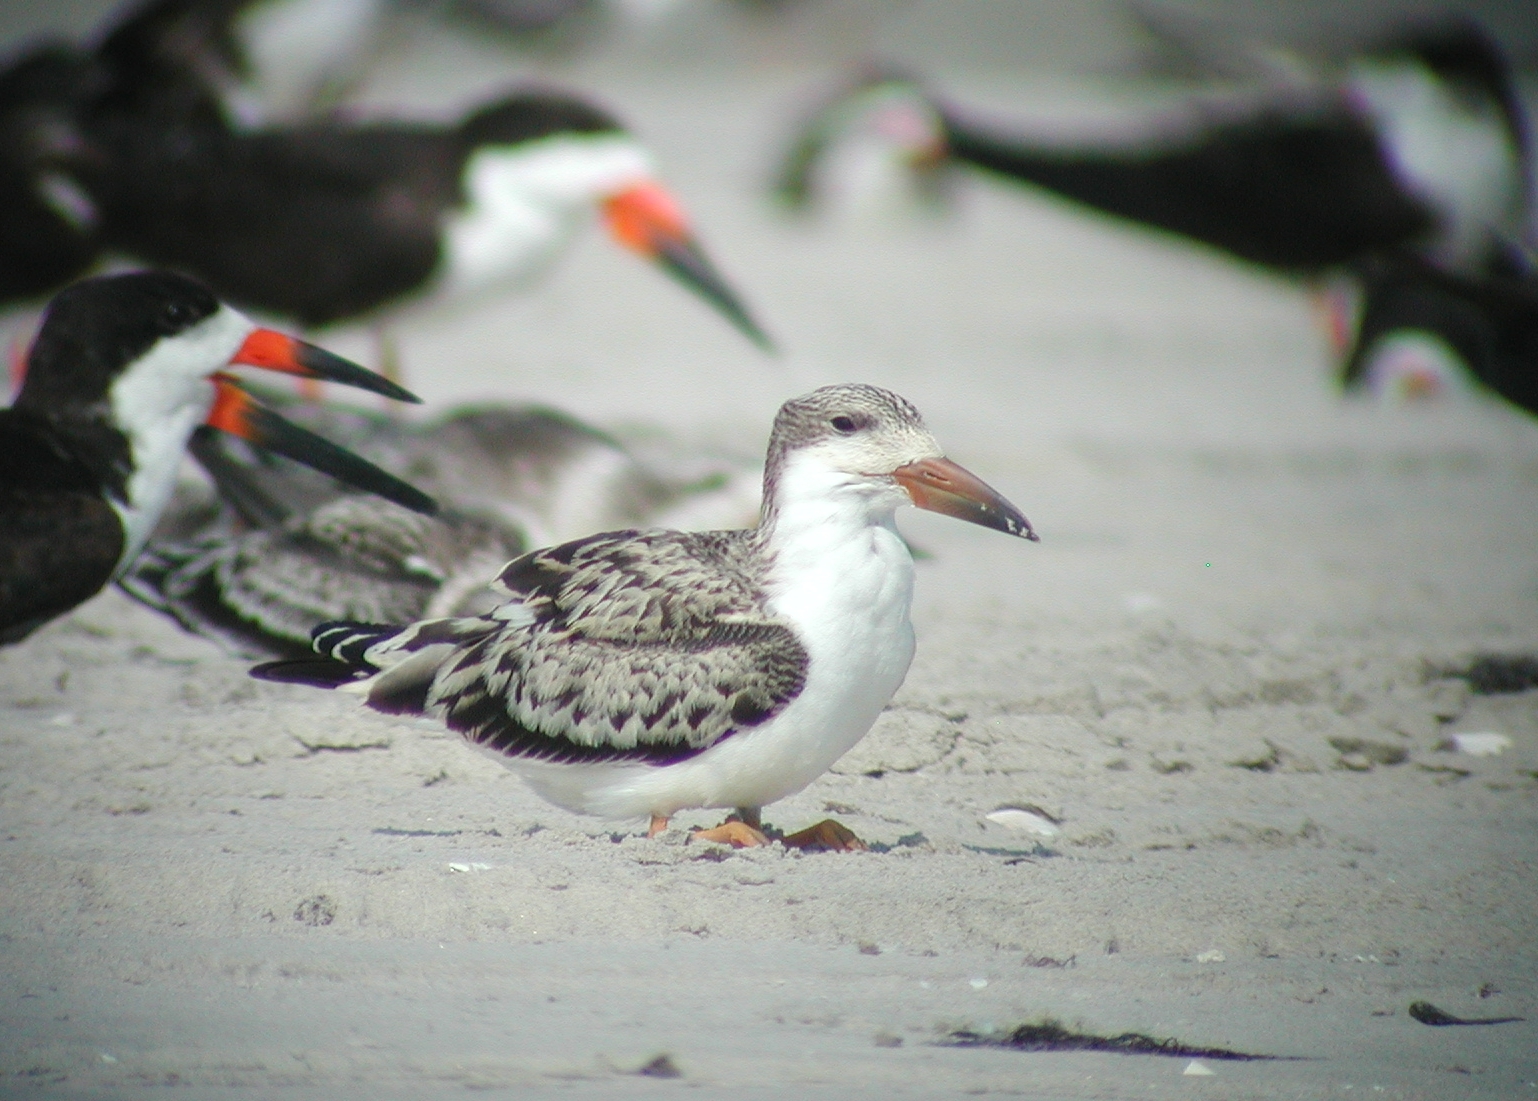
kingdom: Animalia
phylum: Chordata
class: Aves
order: Charadriiformes
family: Laridae
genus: Rynchops
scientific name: Rynchops niger
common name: Black skimmer
